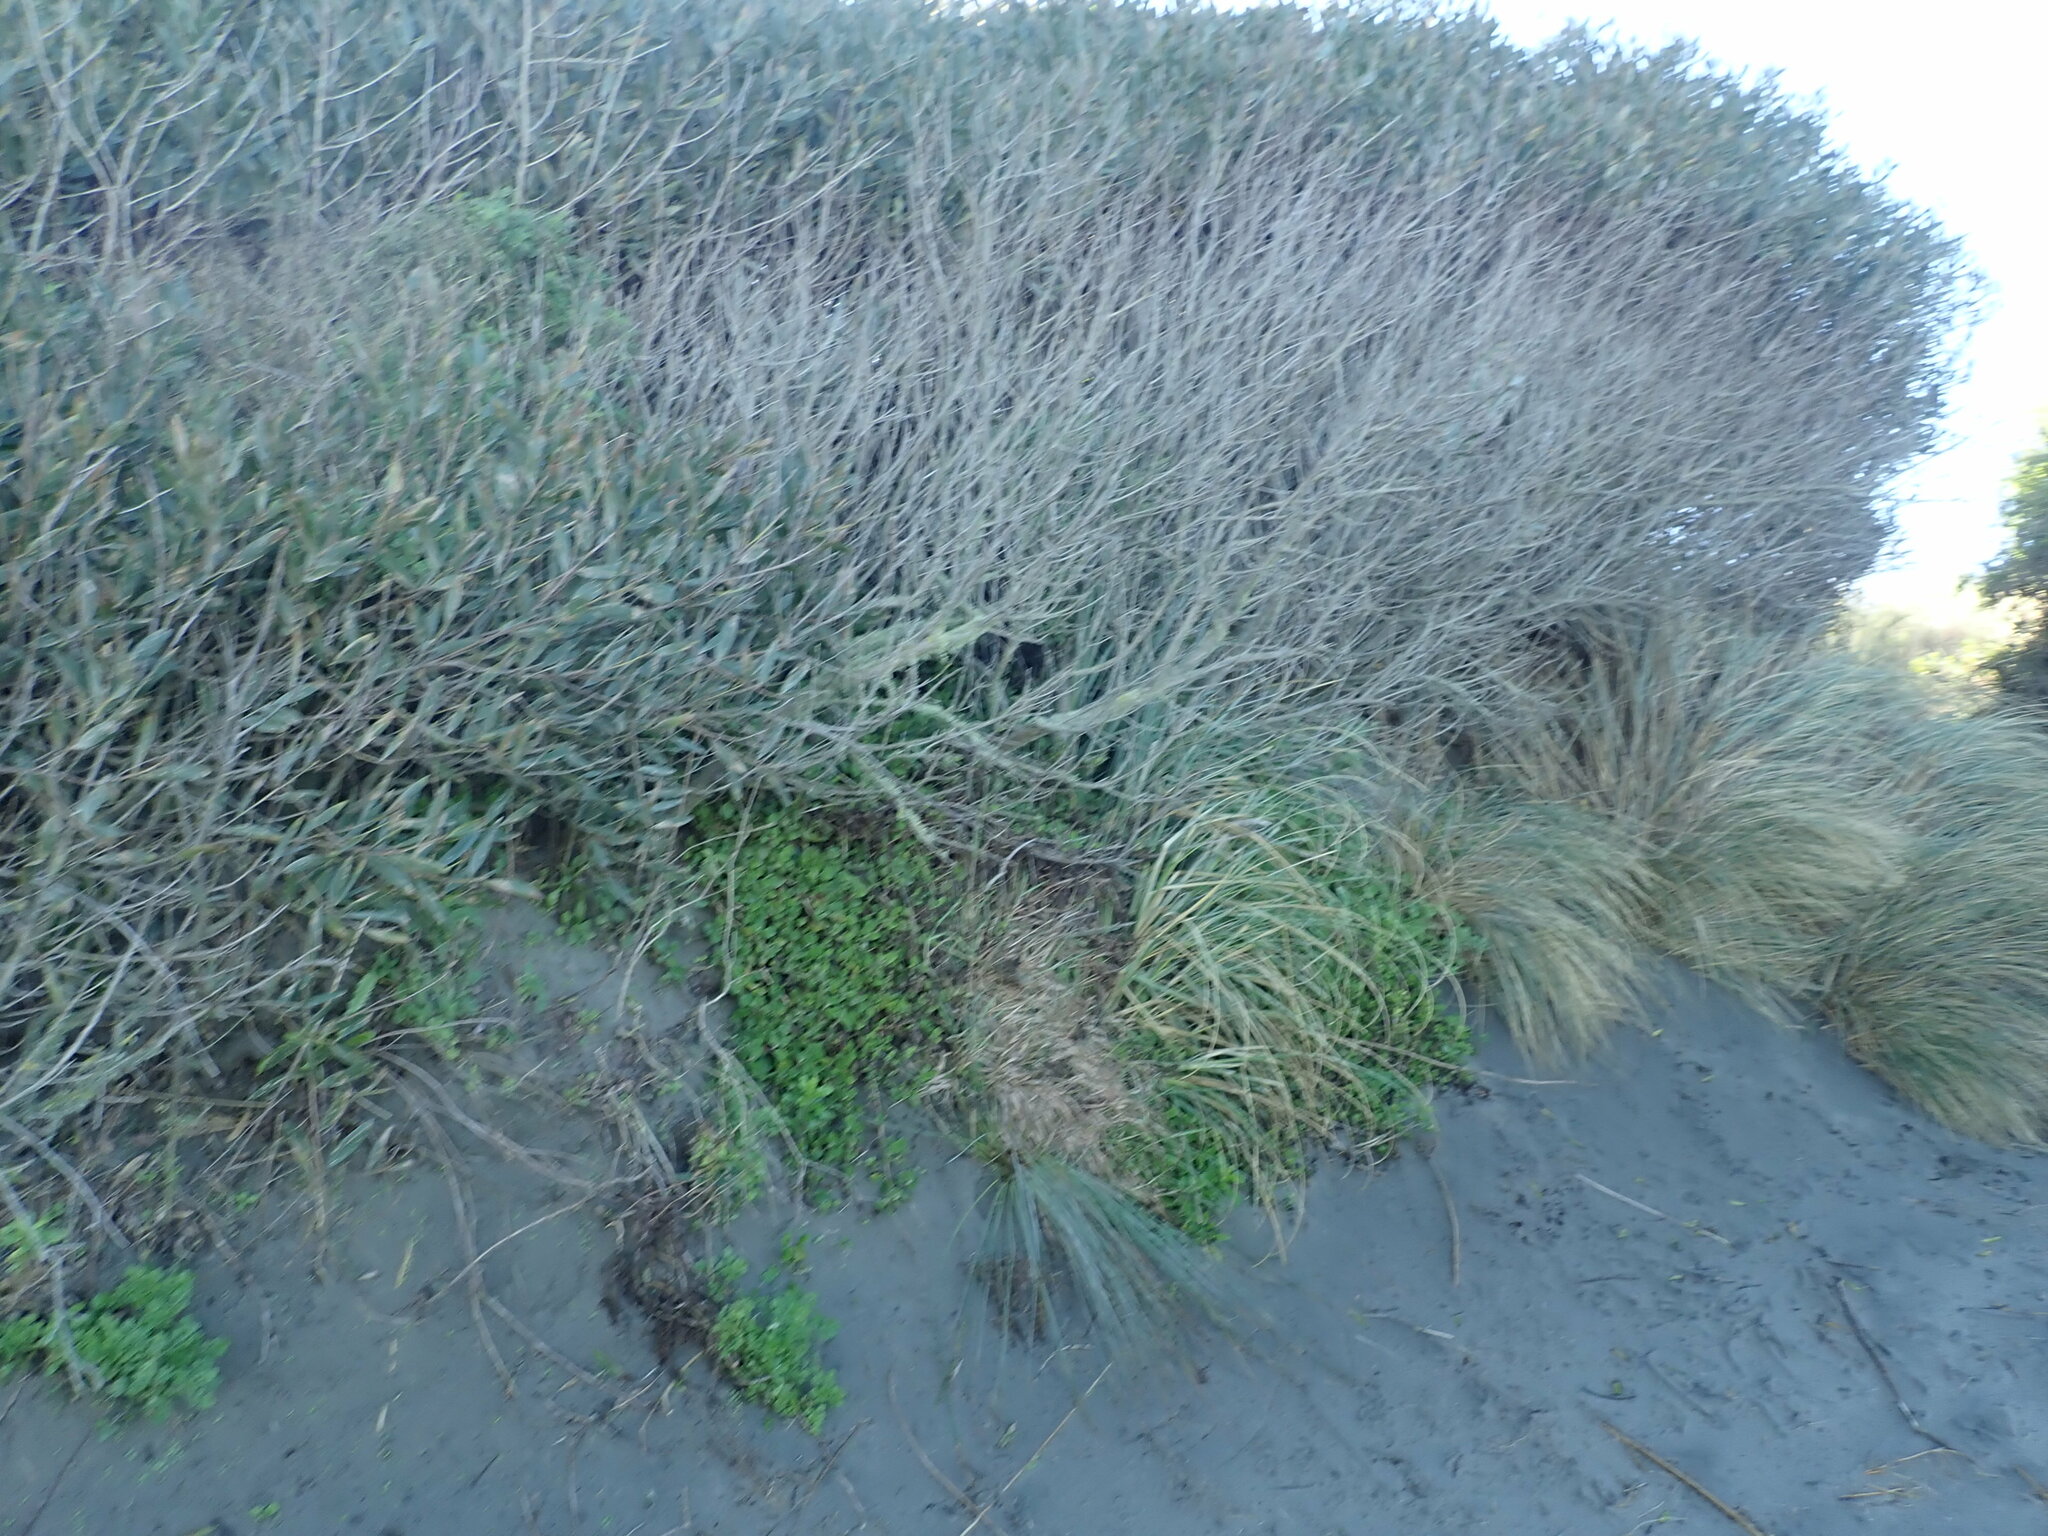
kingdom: Plantae
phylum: Tracheophyta
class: Magnoliopsida
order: Caryophyllales
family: Aizoaceae
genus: Tetragonia
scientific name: Tetragonia implexicoma
